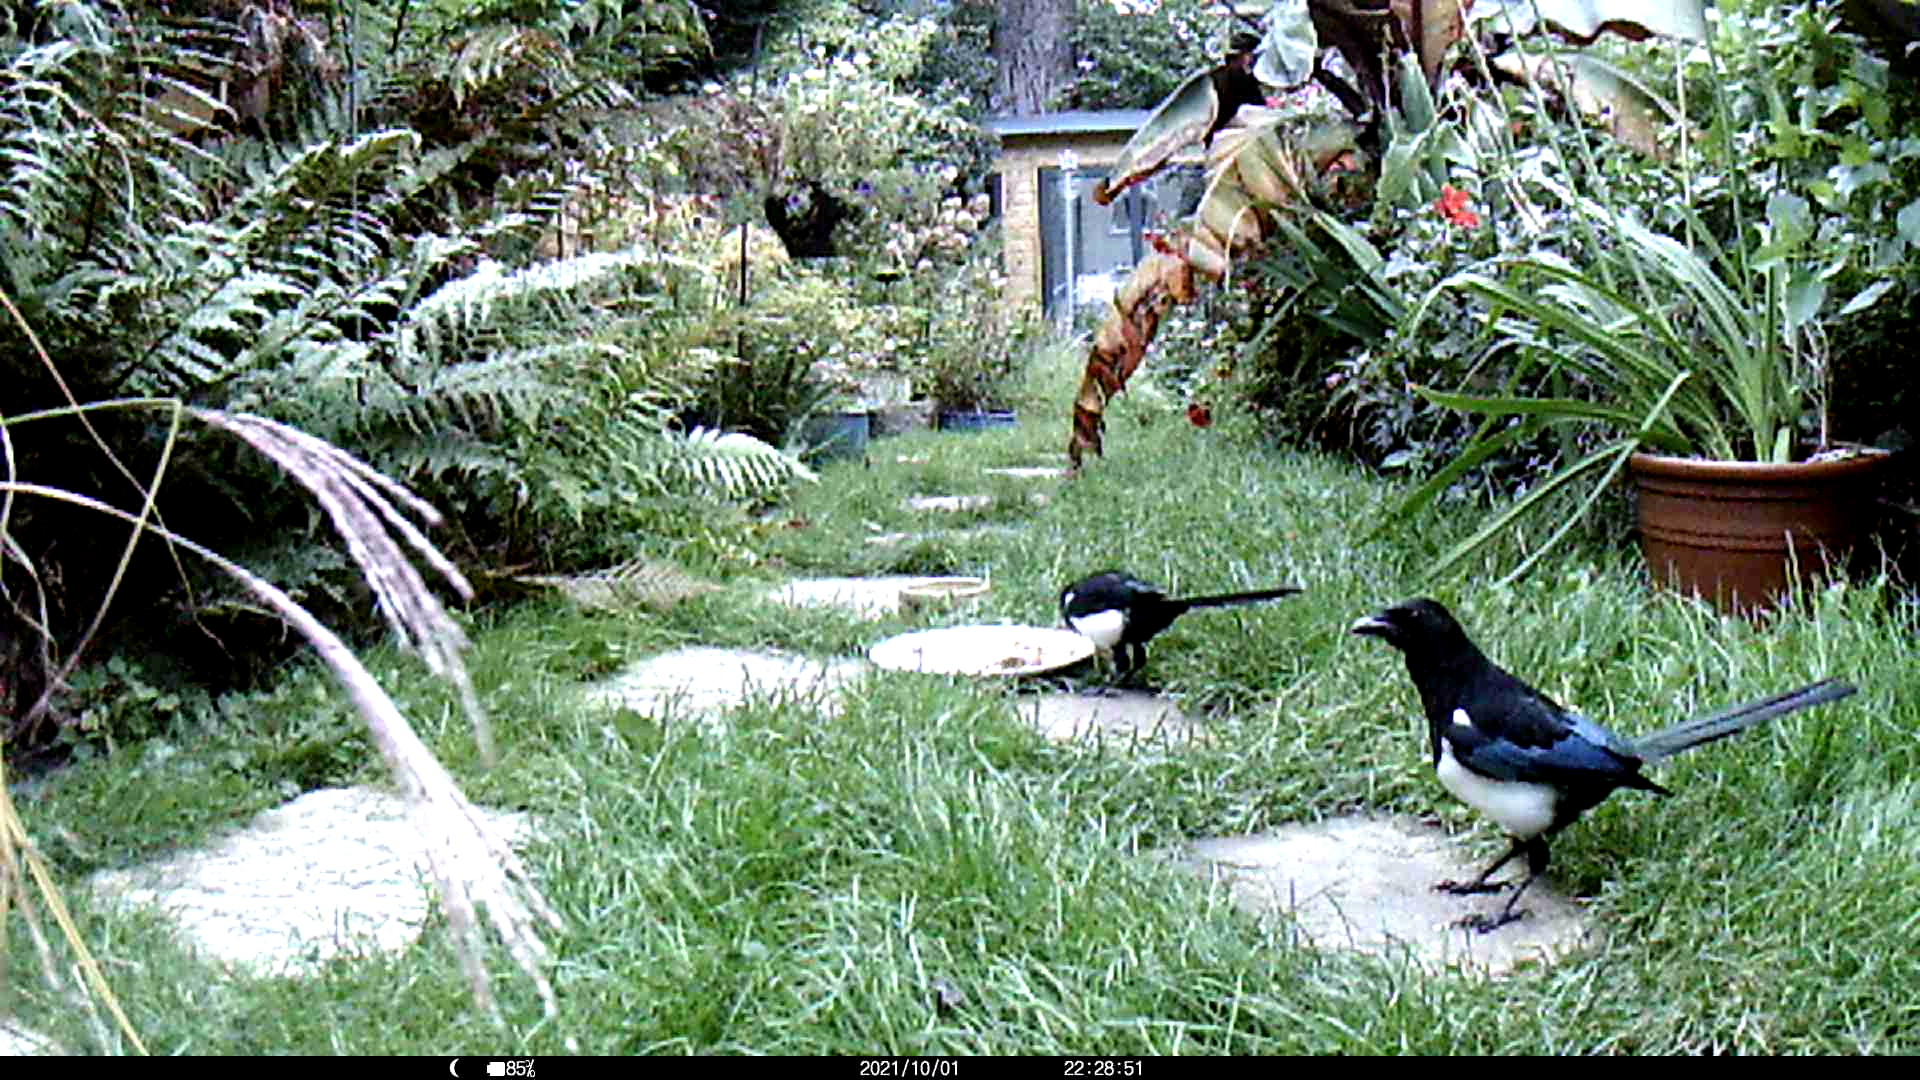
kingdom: Animalia
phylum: Chordata
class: Aves
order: Passeriformes
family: Corvidae
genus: Pica
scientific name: Pica pica
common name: Eurasian magpie
